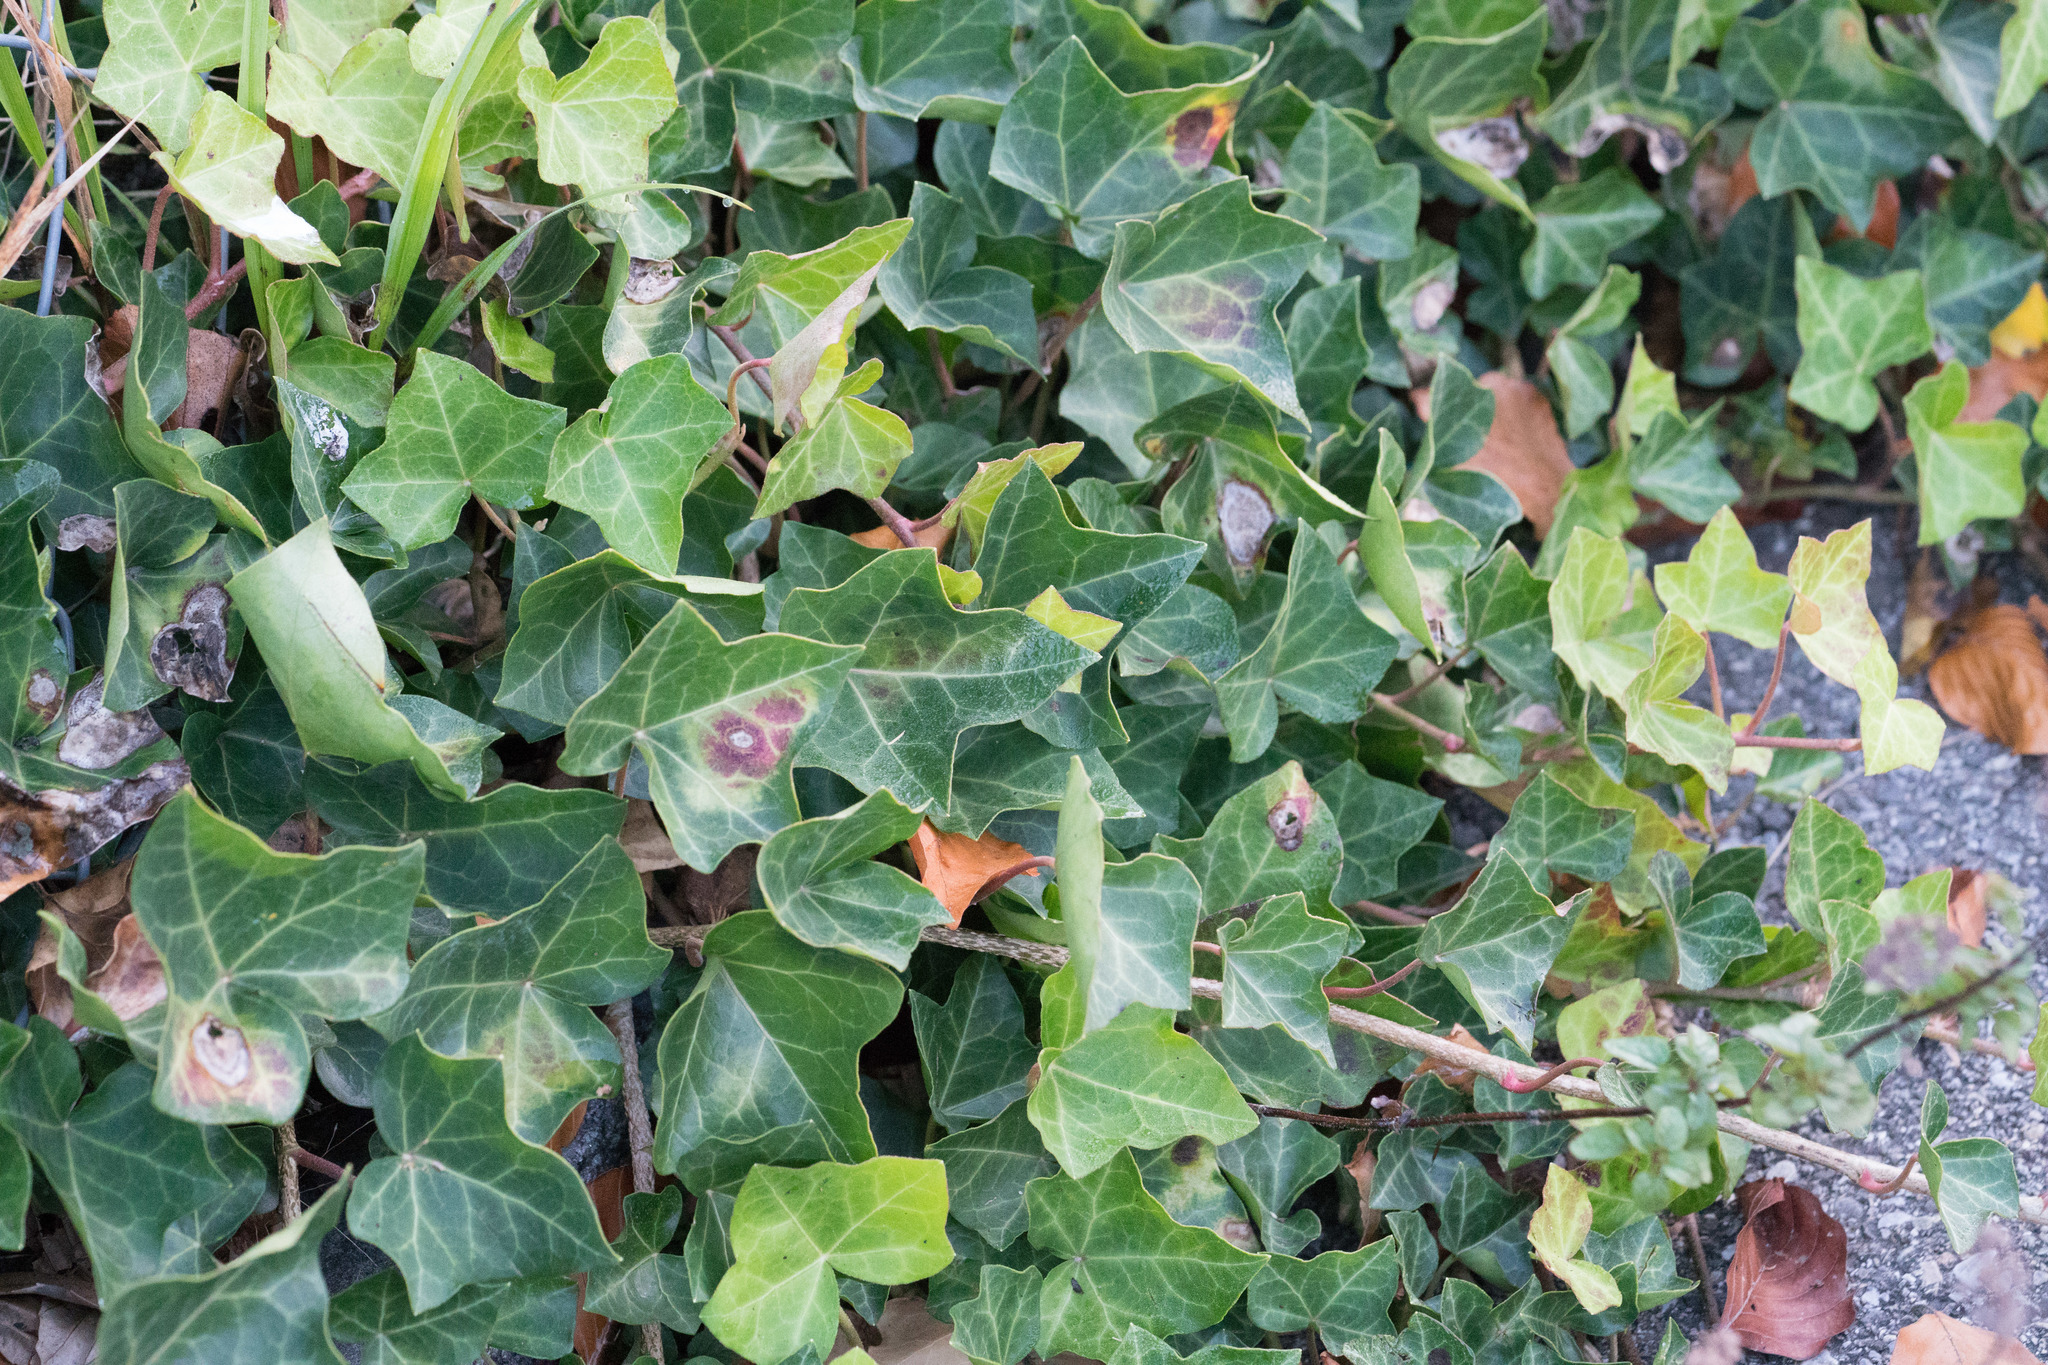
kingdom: Plantae
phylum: Tracheophyta
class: Magnoliopsida
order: Apiales
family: Araliaceae
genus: Hedera
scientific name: Hedera helix
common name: Ivy
